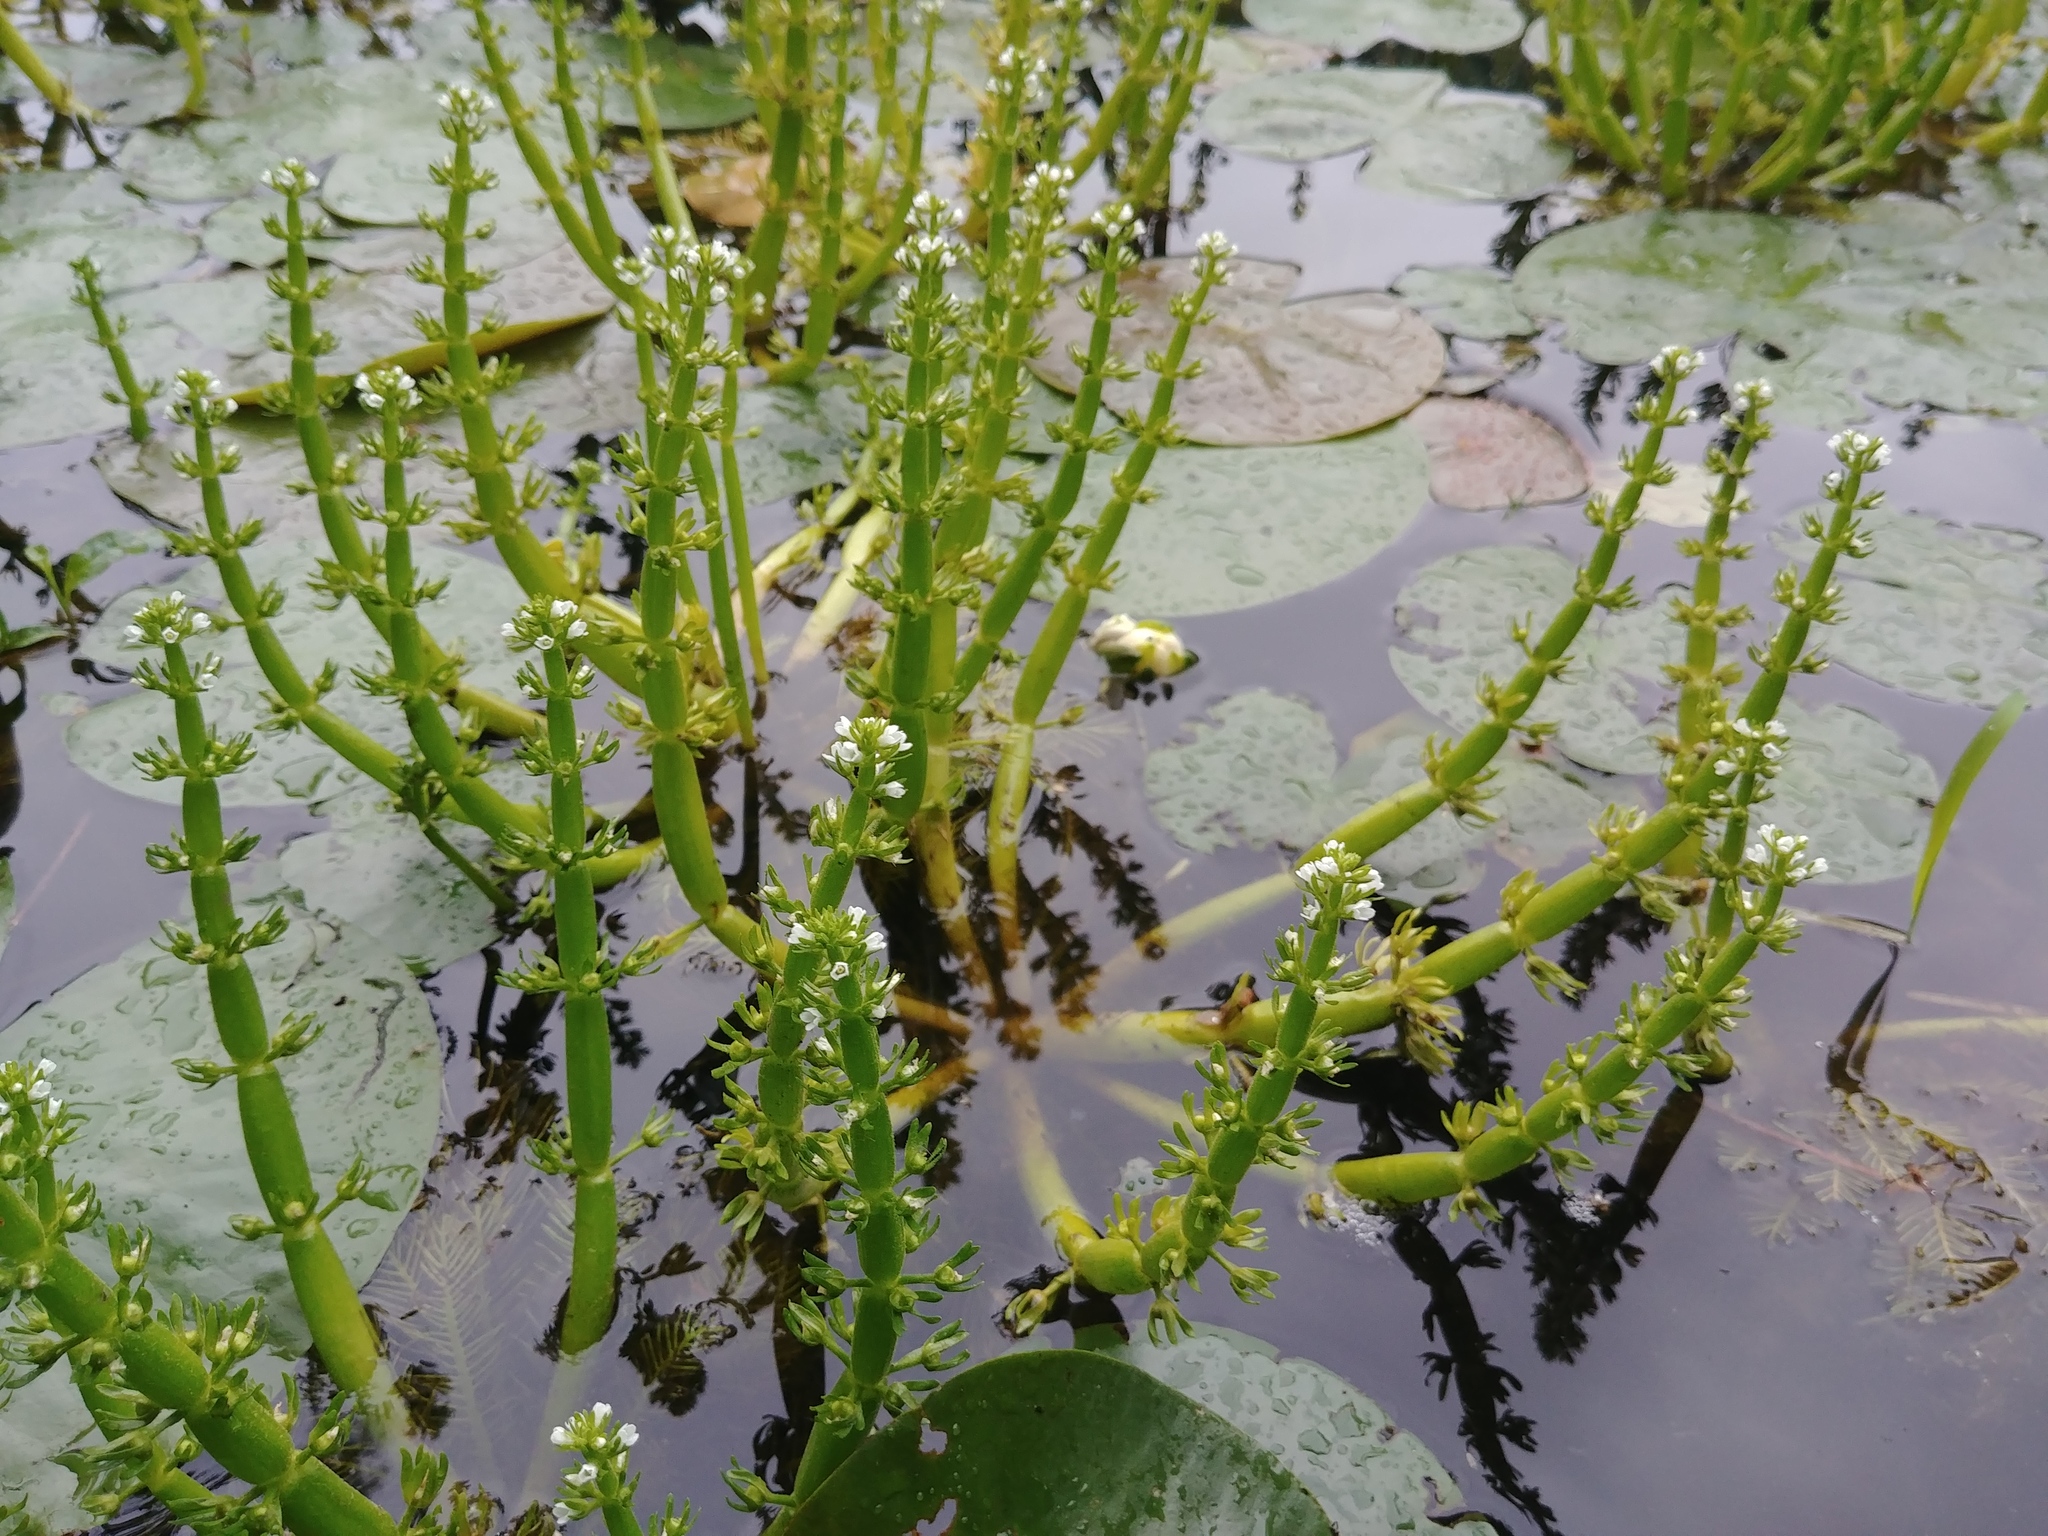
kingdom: Plantae
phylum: Tracheophyta
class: Magnoliopsida
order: Ericales
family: Primulaceae
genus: Hottonia
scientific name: Hottonia inflata
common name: American featherfoil
